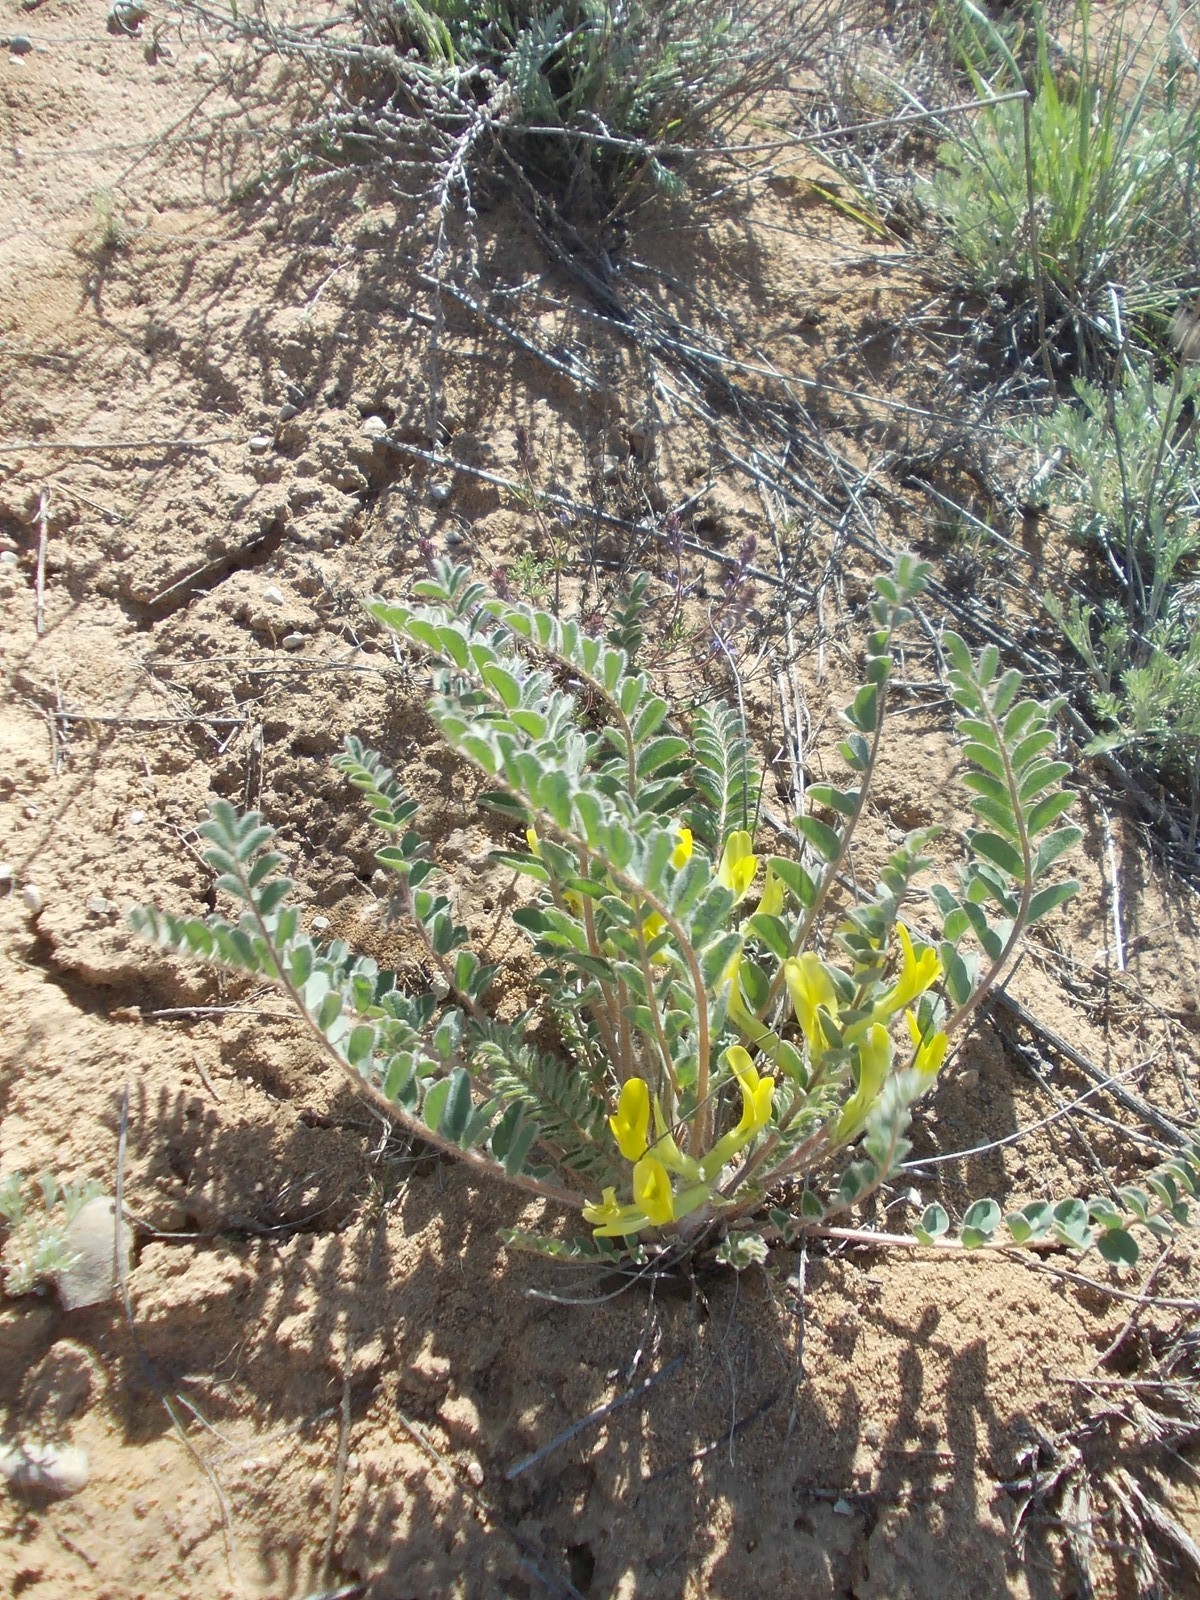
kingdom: Plantae
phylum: Tracheophyta
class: Magnoliopsida
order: Fabales
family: Fabaceae
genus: Astragalus
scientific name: Astragalus longipetalus
